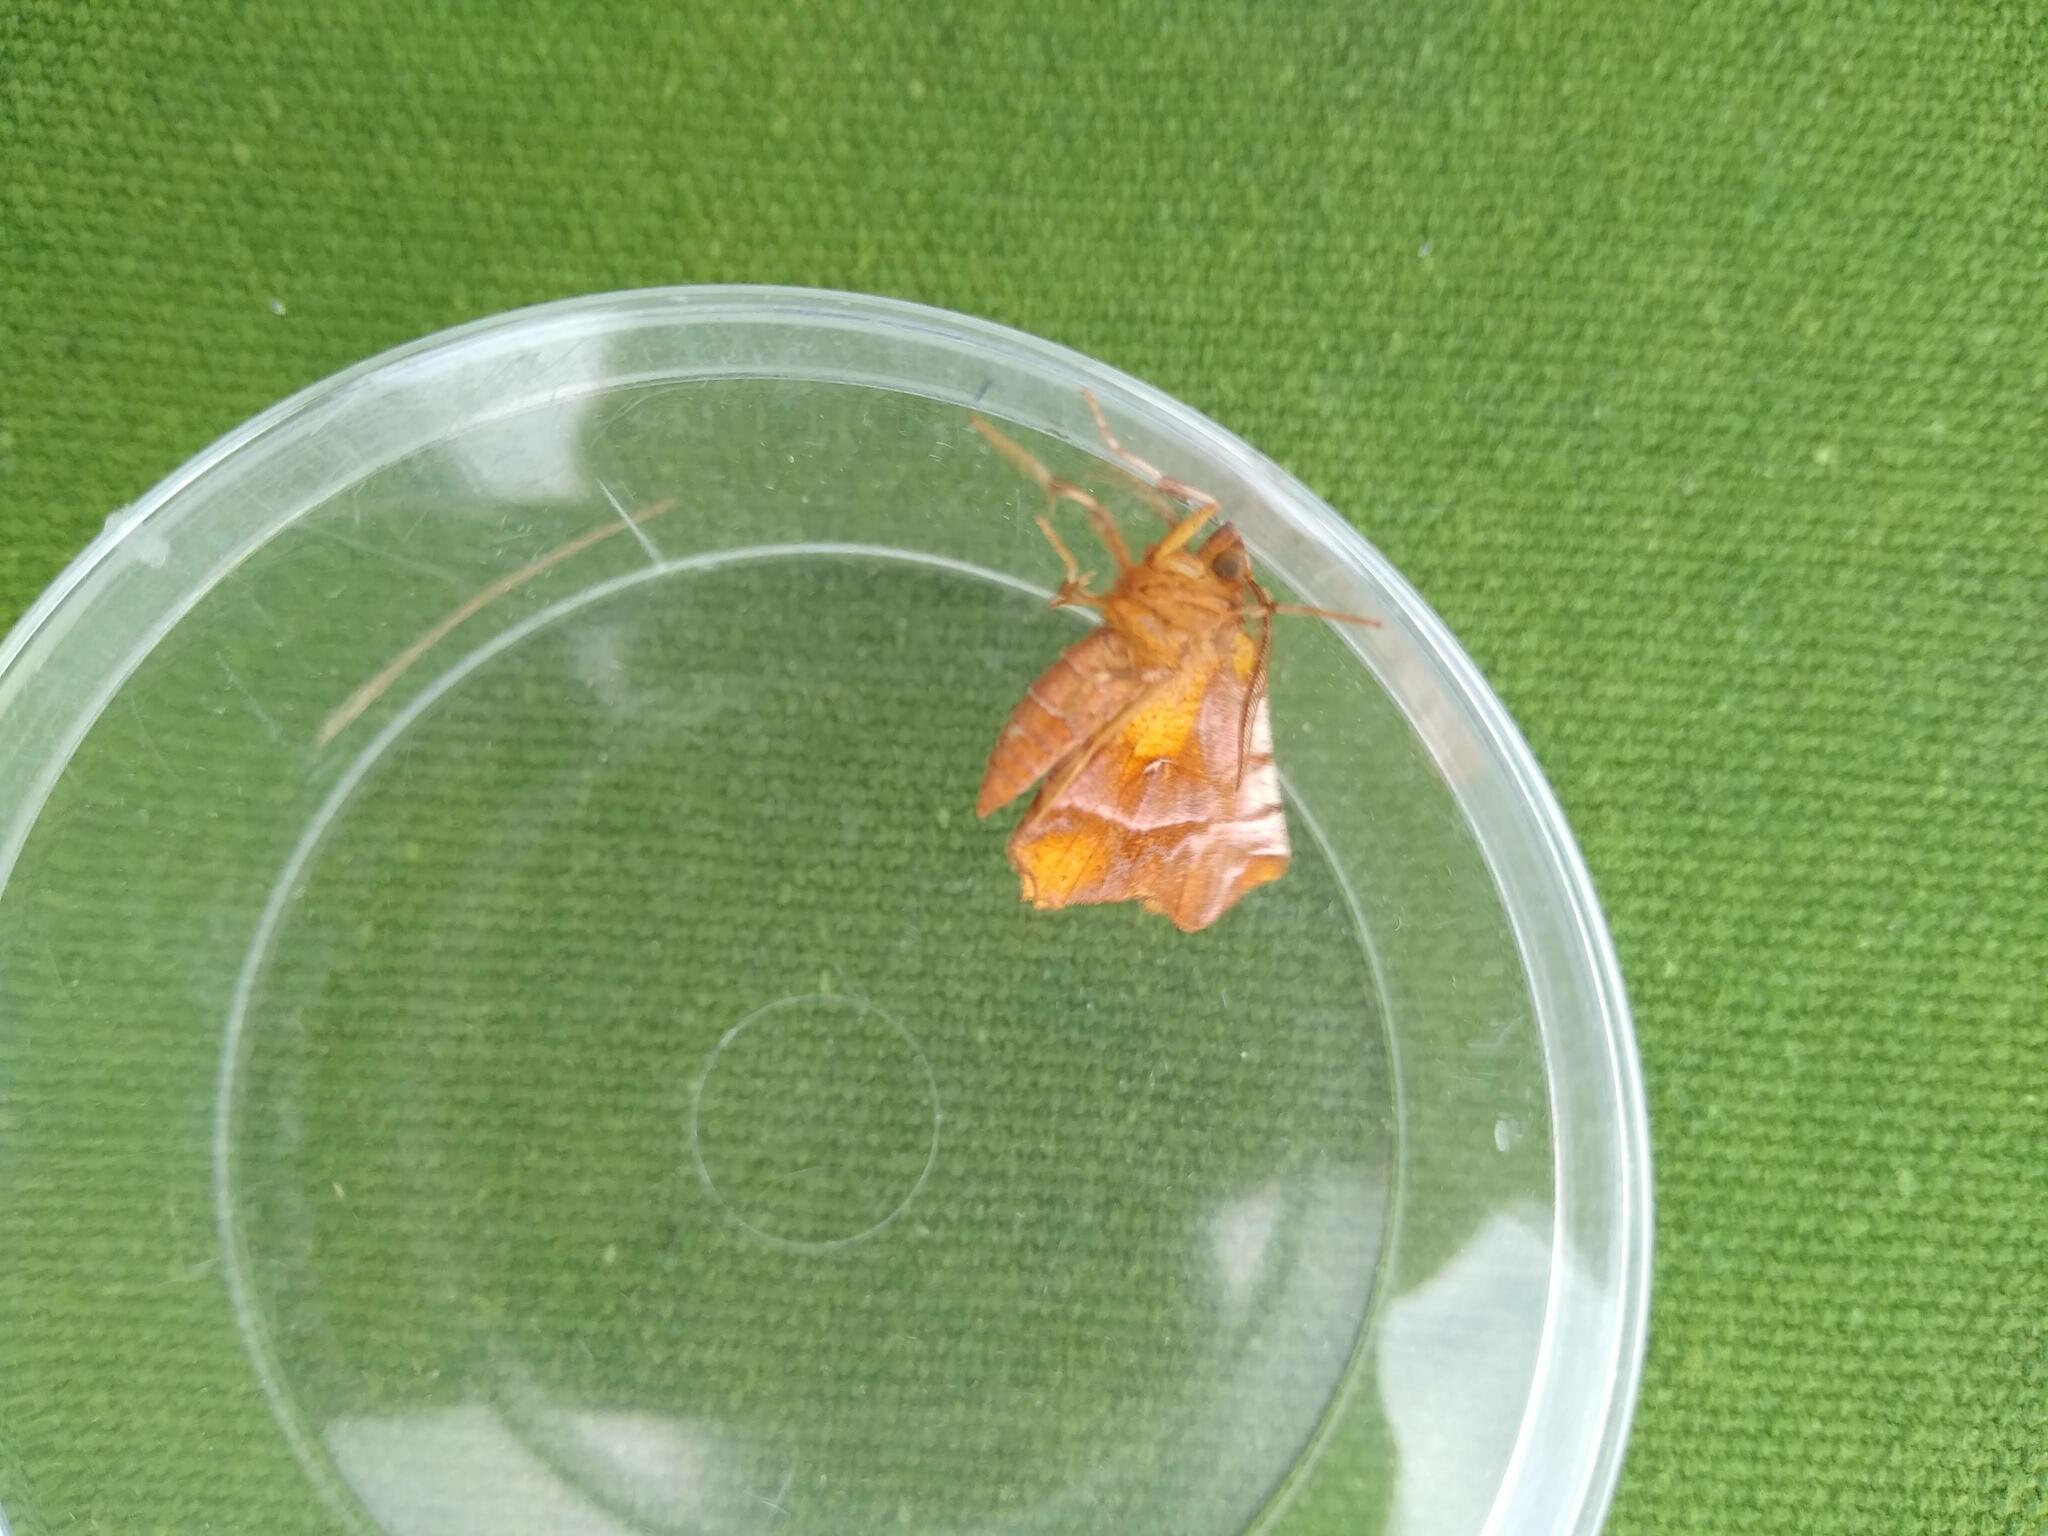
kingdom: Animalia
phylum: Arthropoda
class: Insecta
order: Lepidoptera
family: Geometridae
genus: Selenia
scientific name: Selenia dentaria
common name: Early thorn
